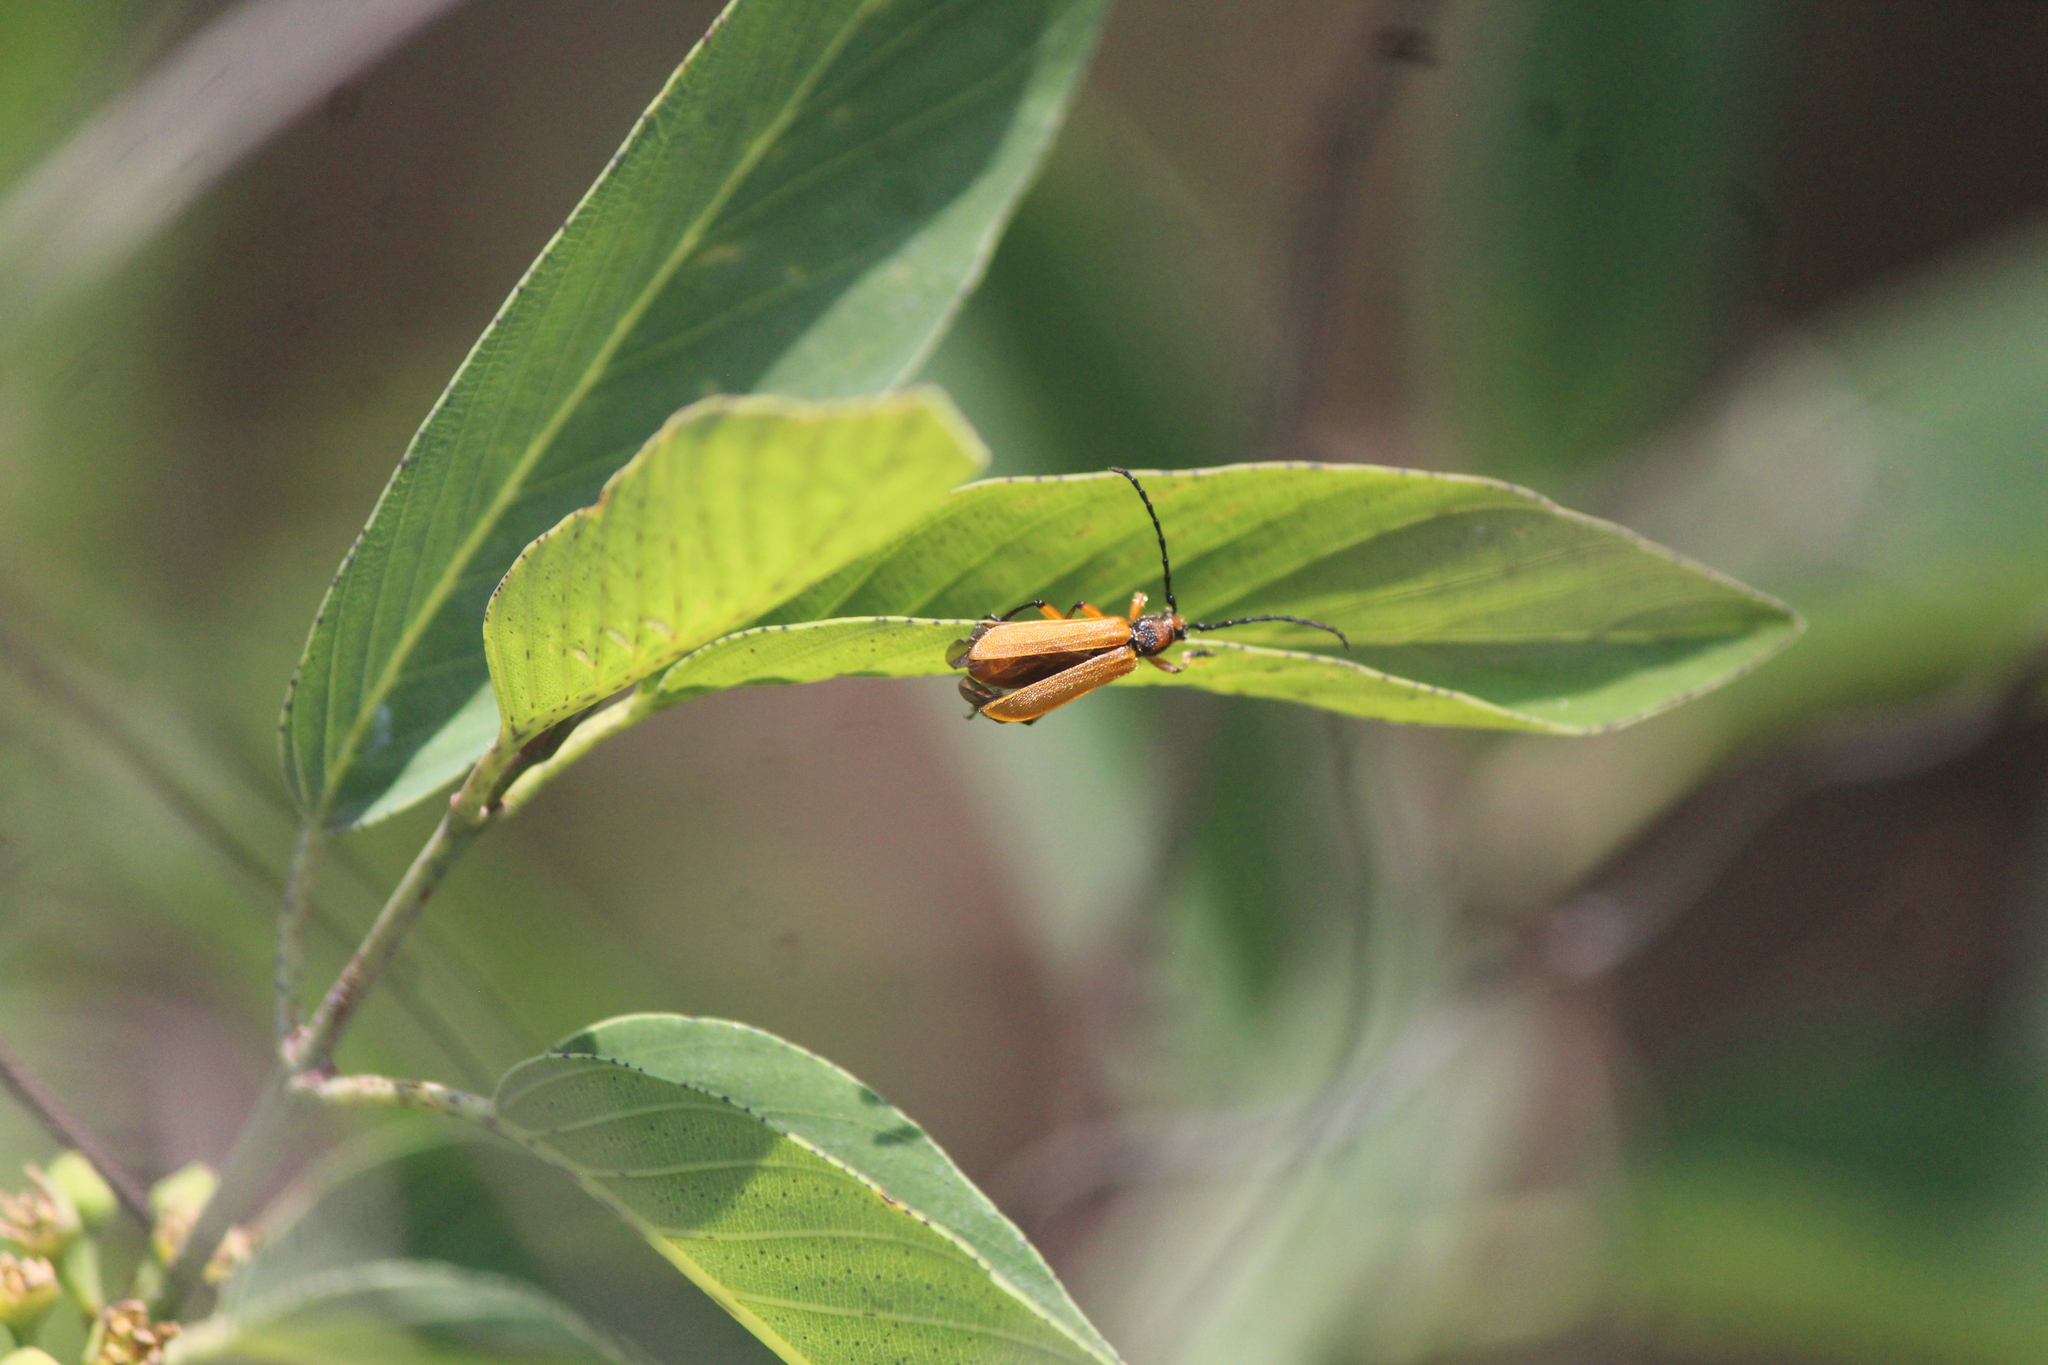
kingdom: Animalia
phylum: Arthropoda
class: Insecta
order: Coleoptera
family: Cerambycidae
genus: Elytroleptus
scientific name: Elytroleptus luteus
